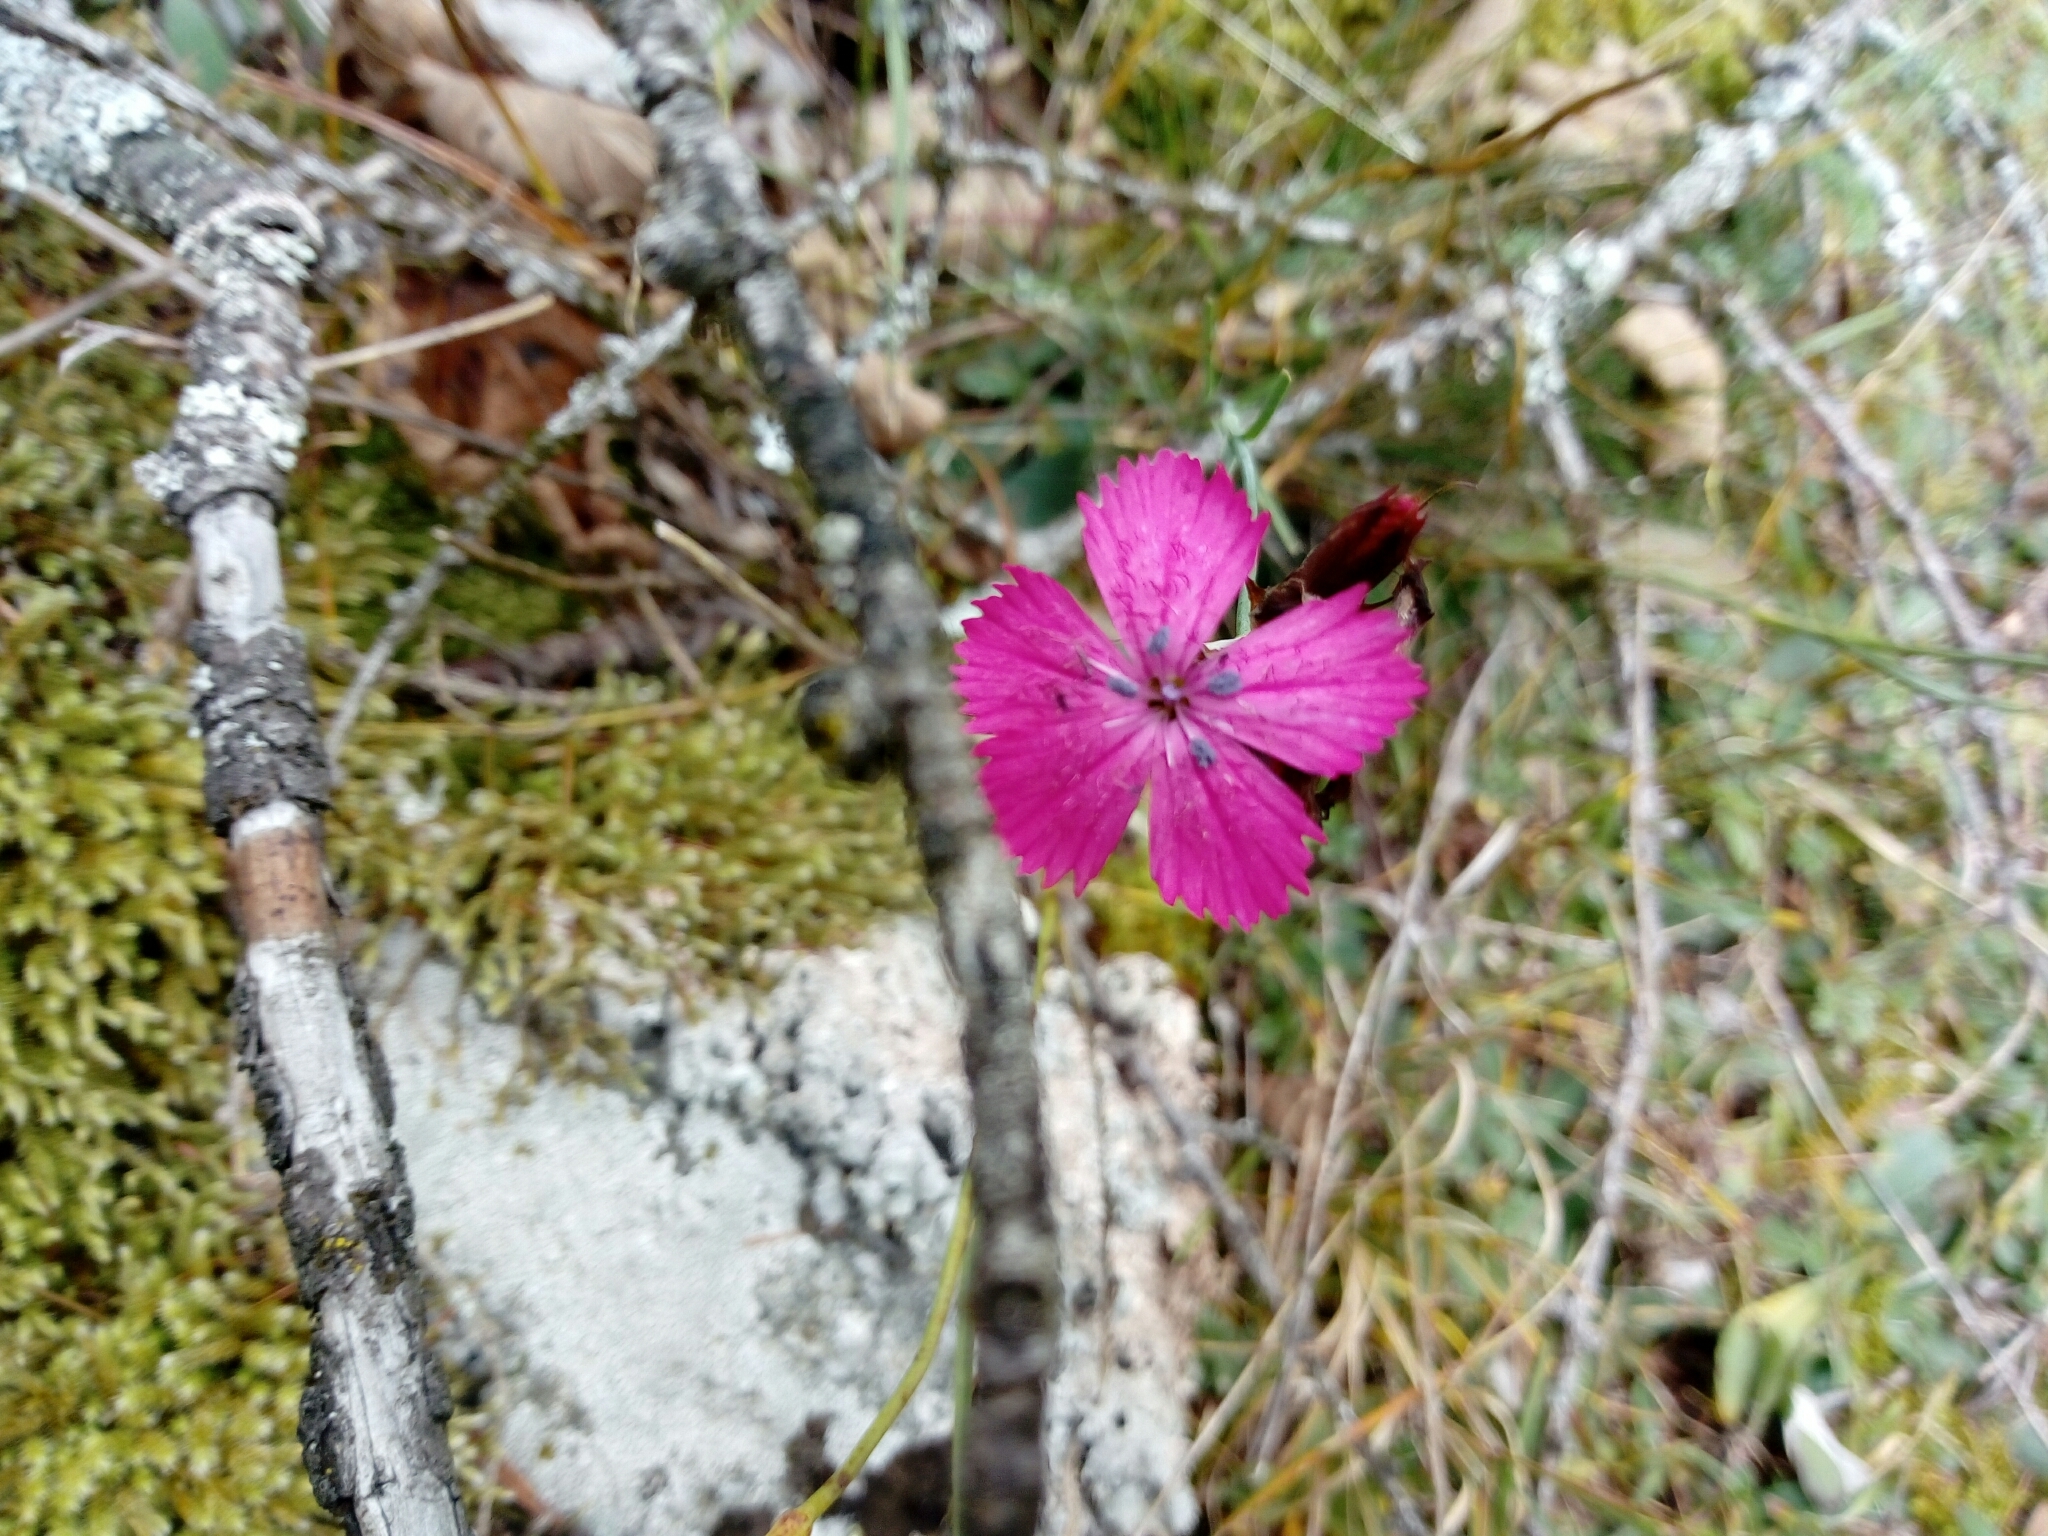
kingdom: Plantae
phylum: Tracheophyta
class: Magnoliopsida
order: Caryophyllales
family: Caryophyllaceae
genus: Dianthus
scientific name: Dianthus carthusianorum
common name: Carthusian pink
